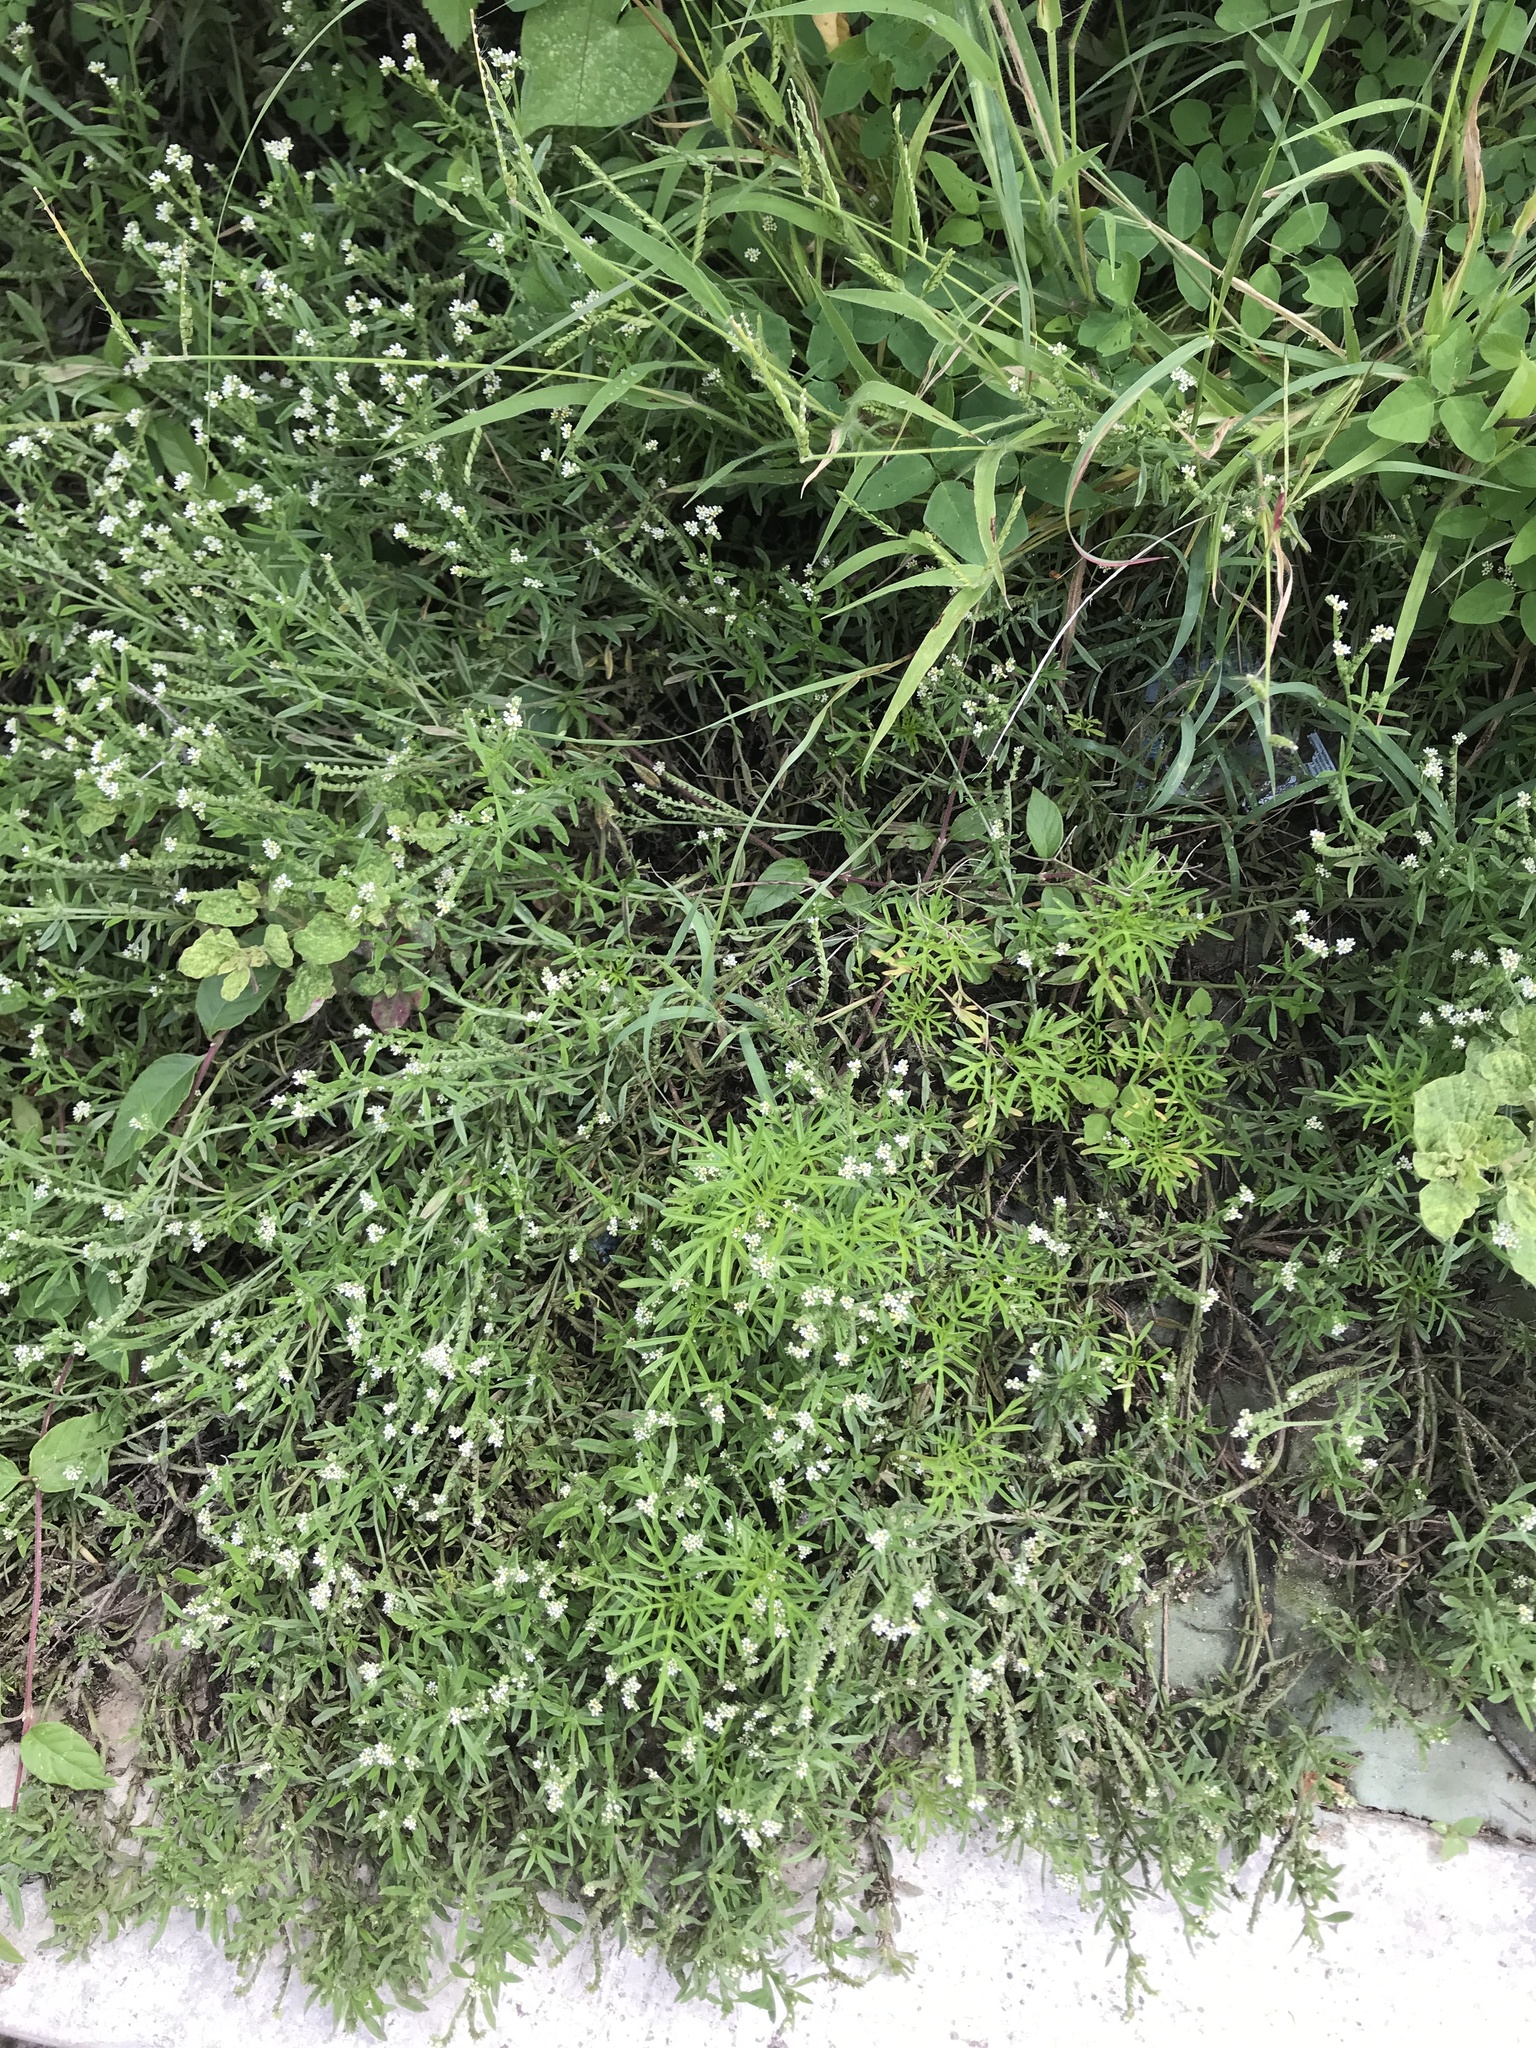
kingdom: Plantae
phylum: Tracheophyta
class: Magnoliopsida
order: Boraginales
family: Heliotropiaceae
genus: Euploca
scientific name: Euploca procumbens
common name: Fourspike heliotrope
